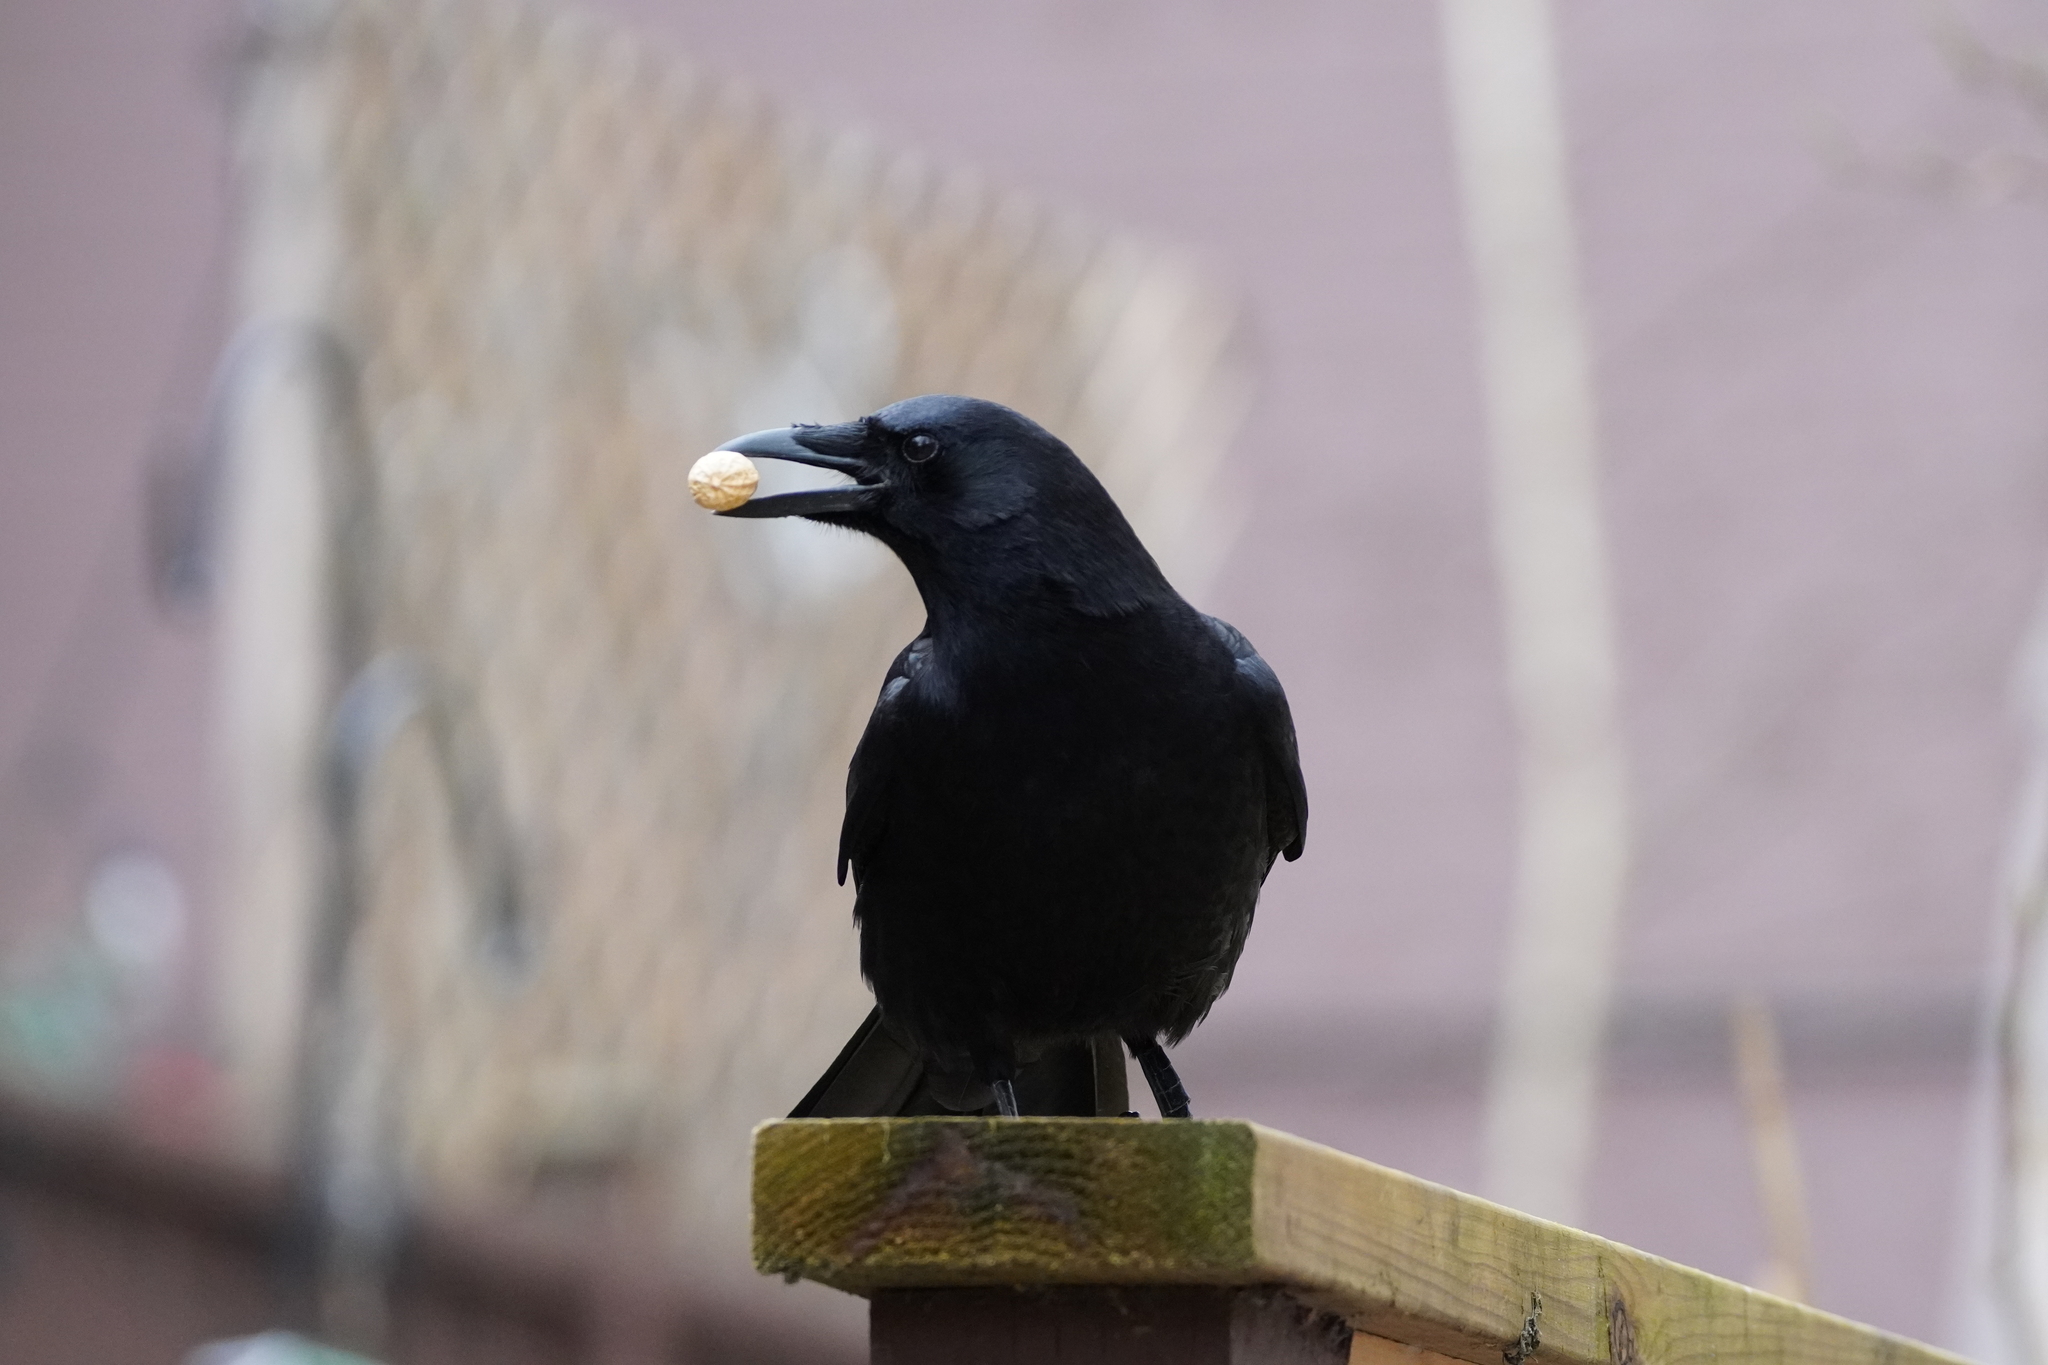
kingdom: Animalia
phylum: Chordata
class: Aves
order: Passeriformes
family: Corvidae
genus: Corvus
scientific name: Corvus brachyrhynchos
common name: American crow
